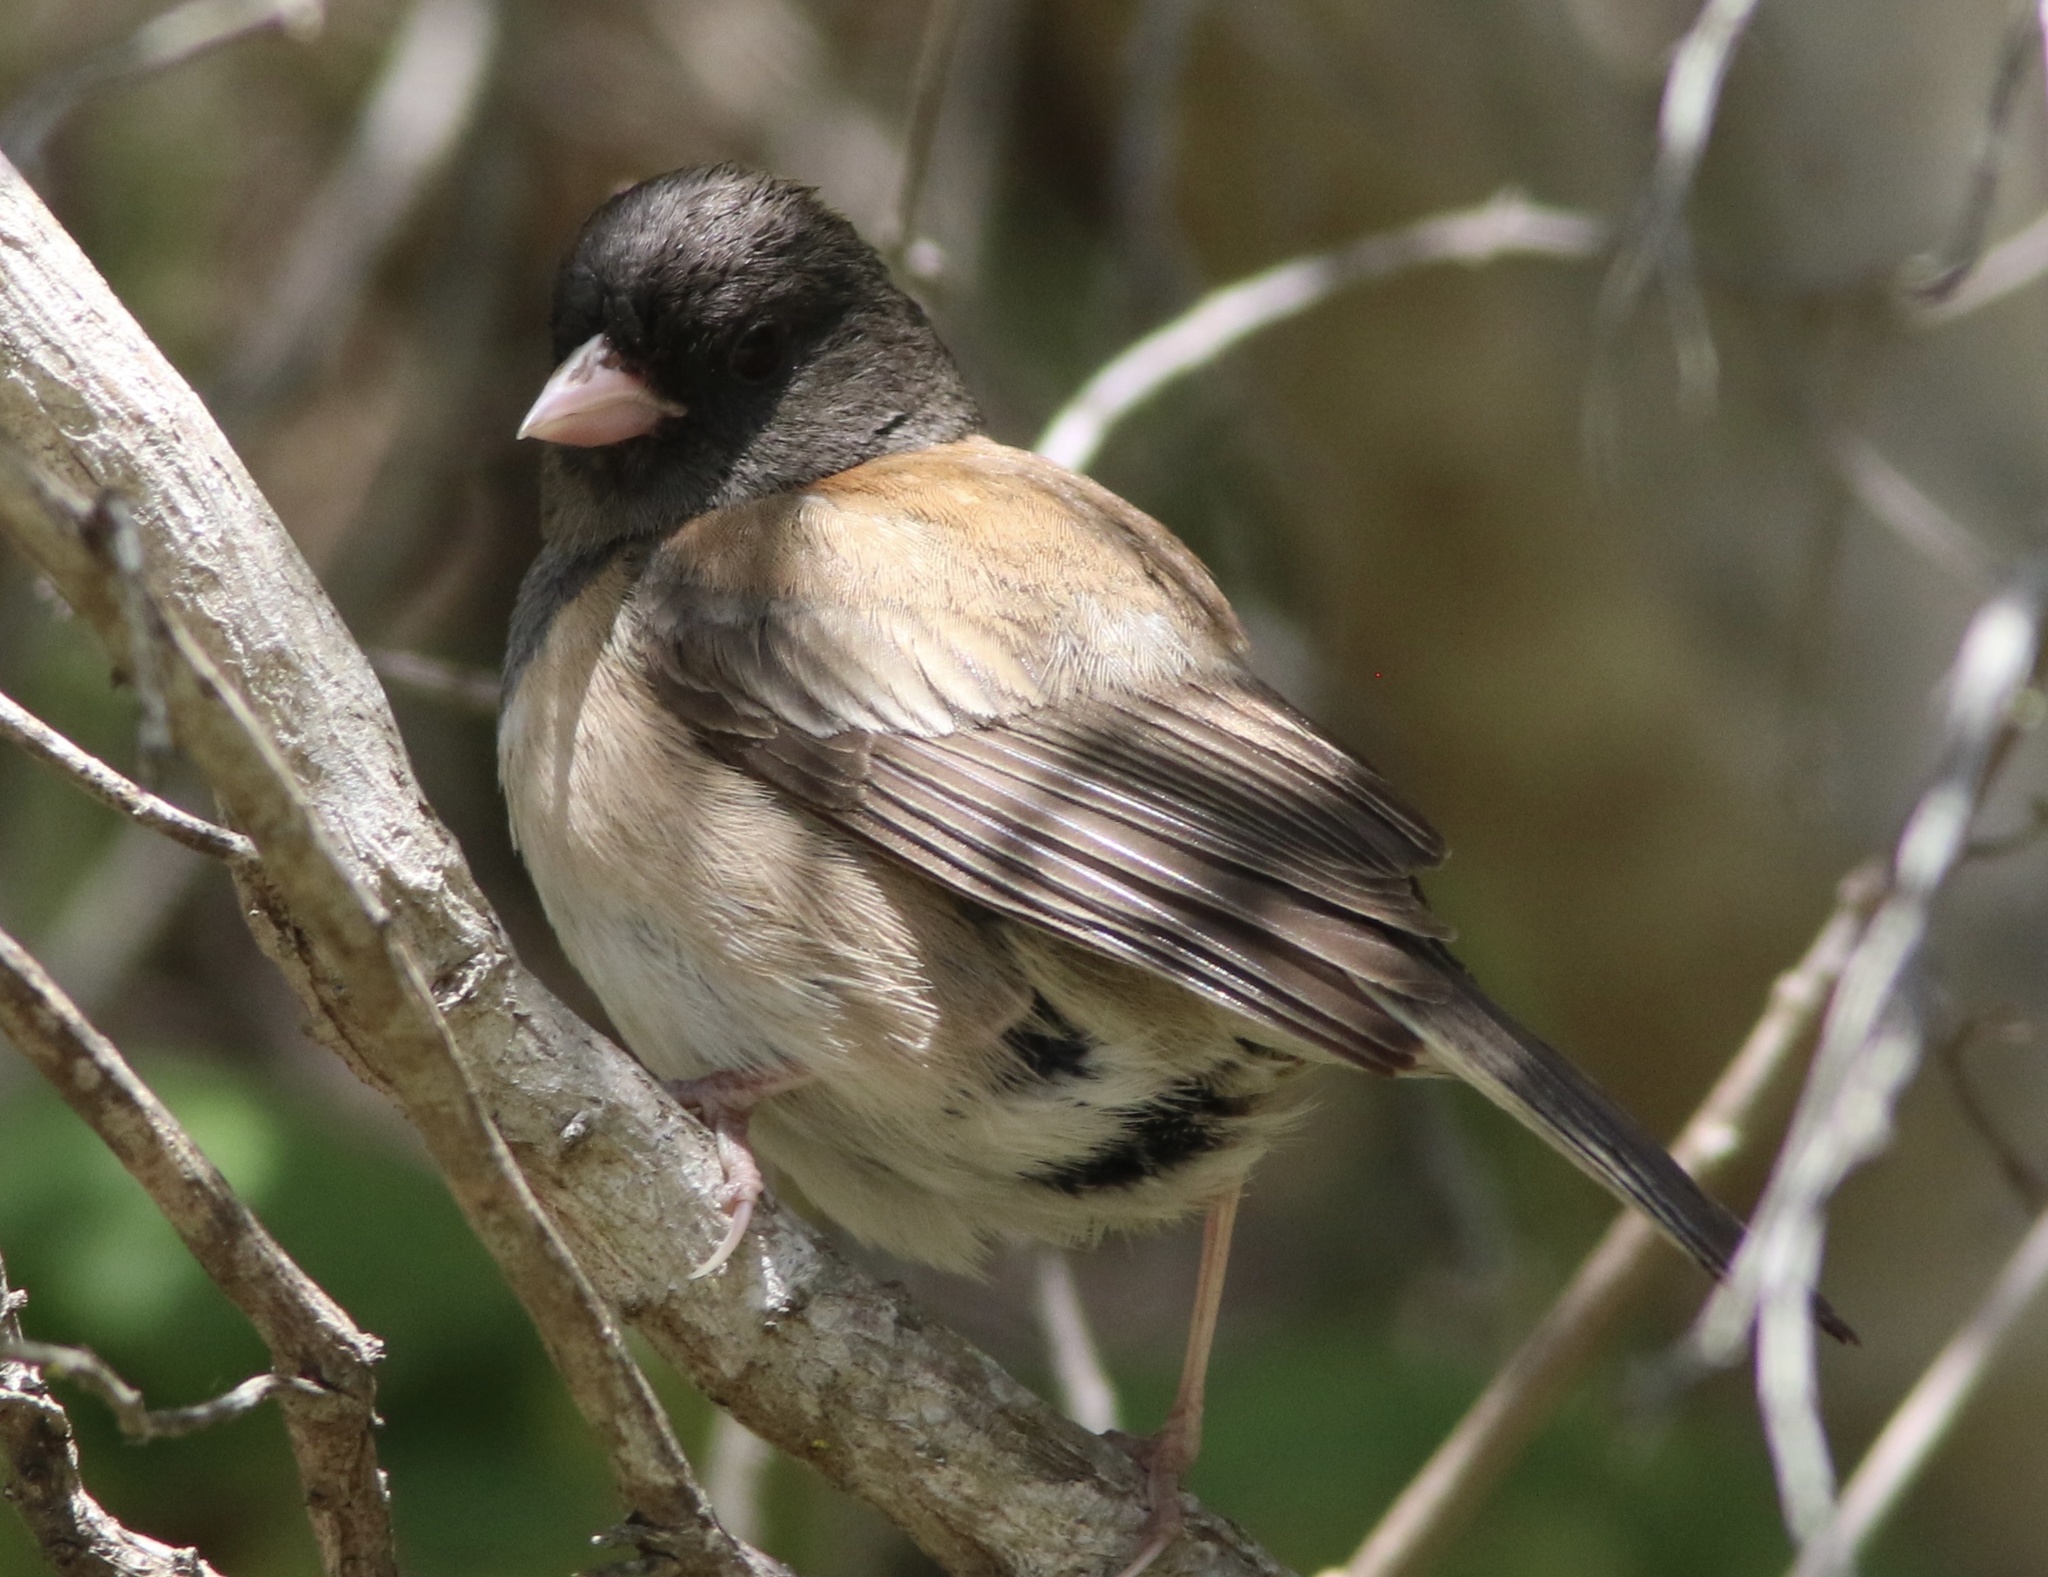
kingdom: Animalia
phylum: Chordata
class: Aves
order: Passeriformes
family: Passerellidae
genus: Junco
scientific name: Junco hyemalis
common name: Dark-eyed junco
